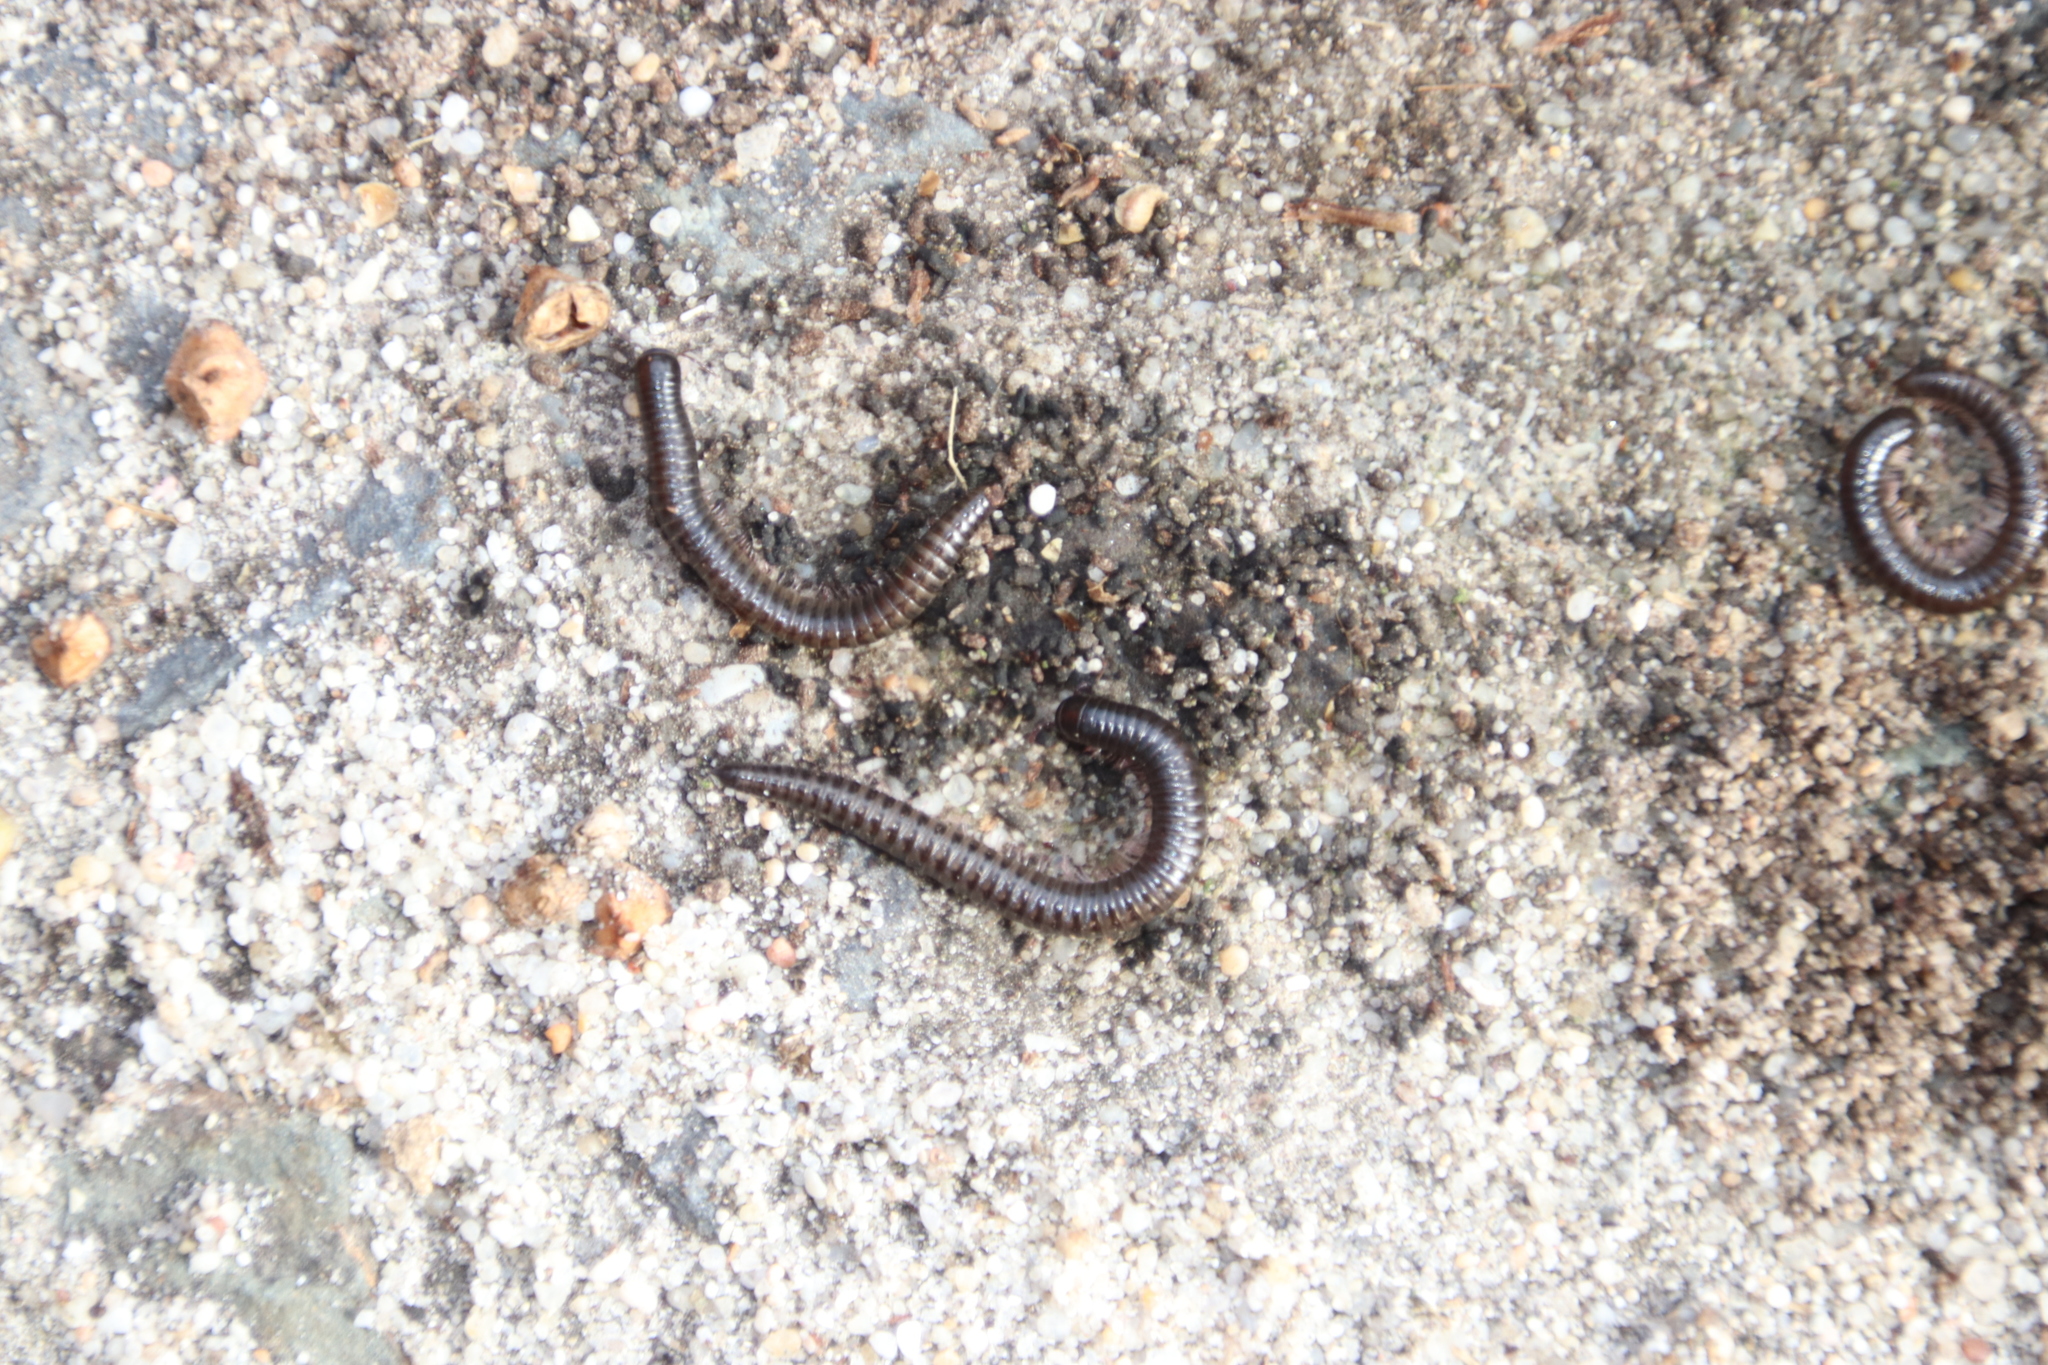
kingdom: Animalia
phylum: Arthropoda
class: Diplopoda
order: Julida
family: Julidae
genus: Ommatoiulus
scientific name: Ommatoiulus moreleti
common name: Portuguese millipede
